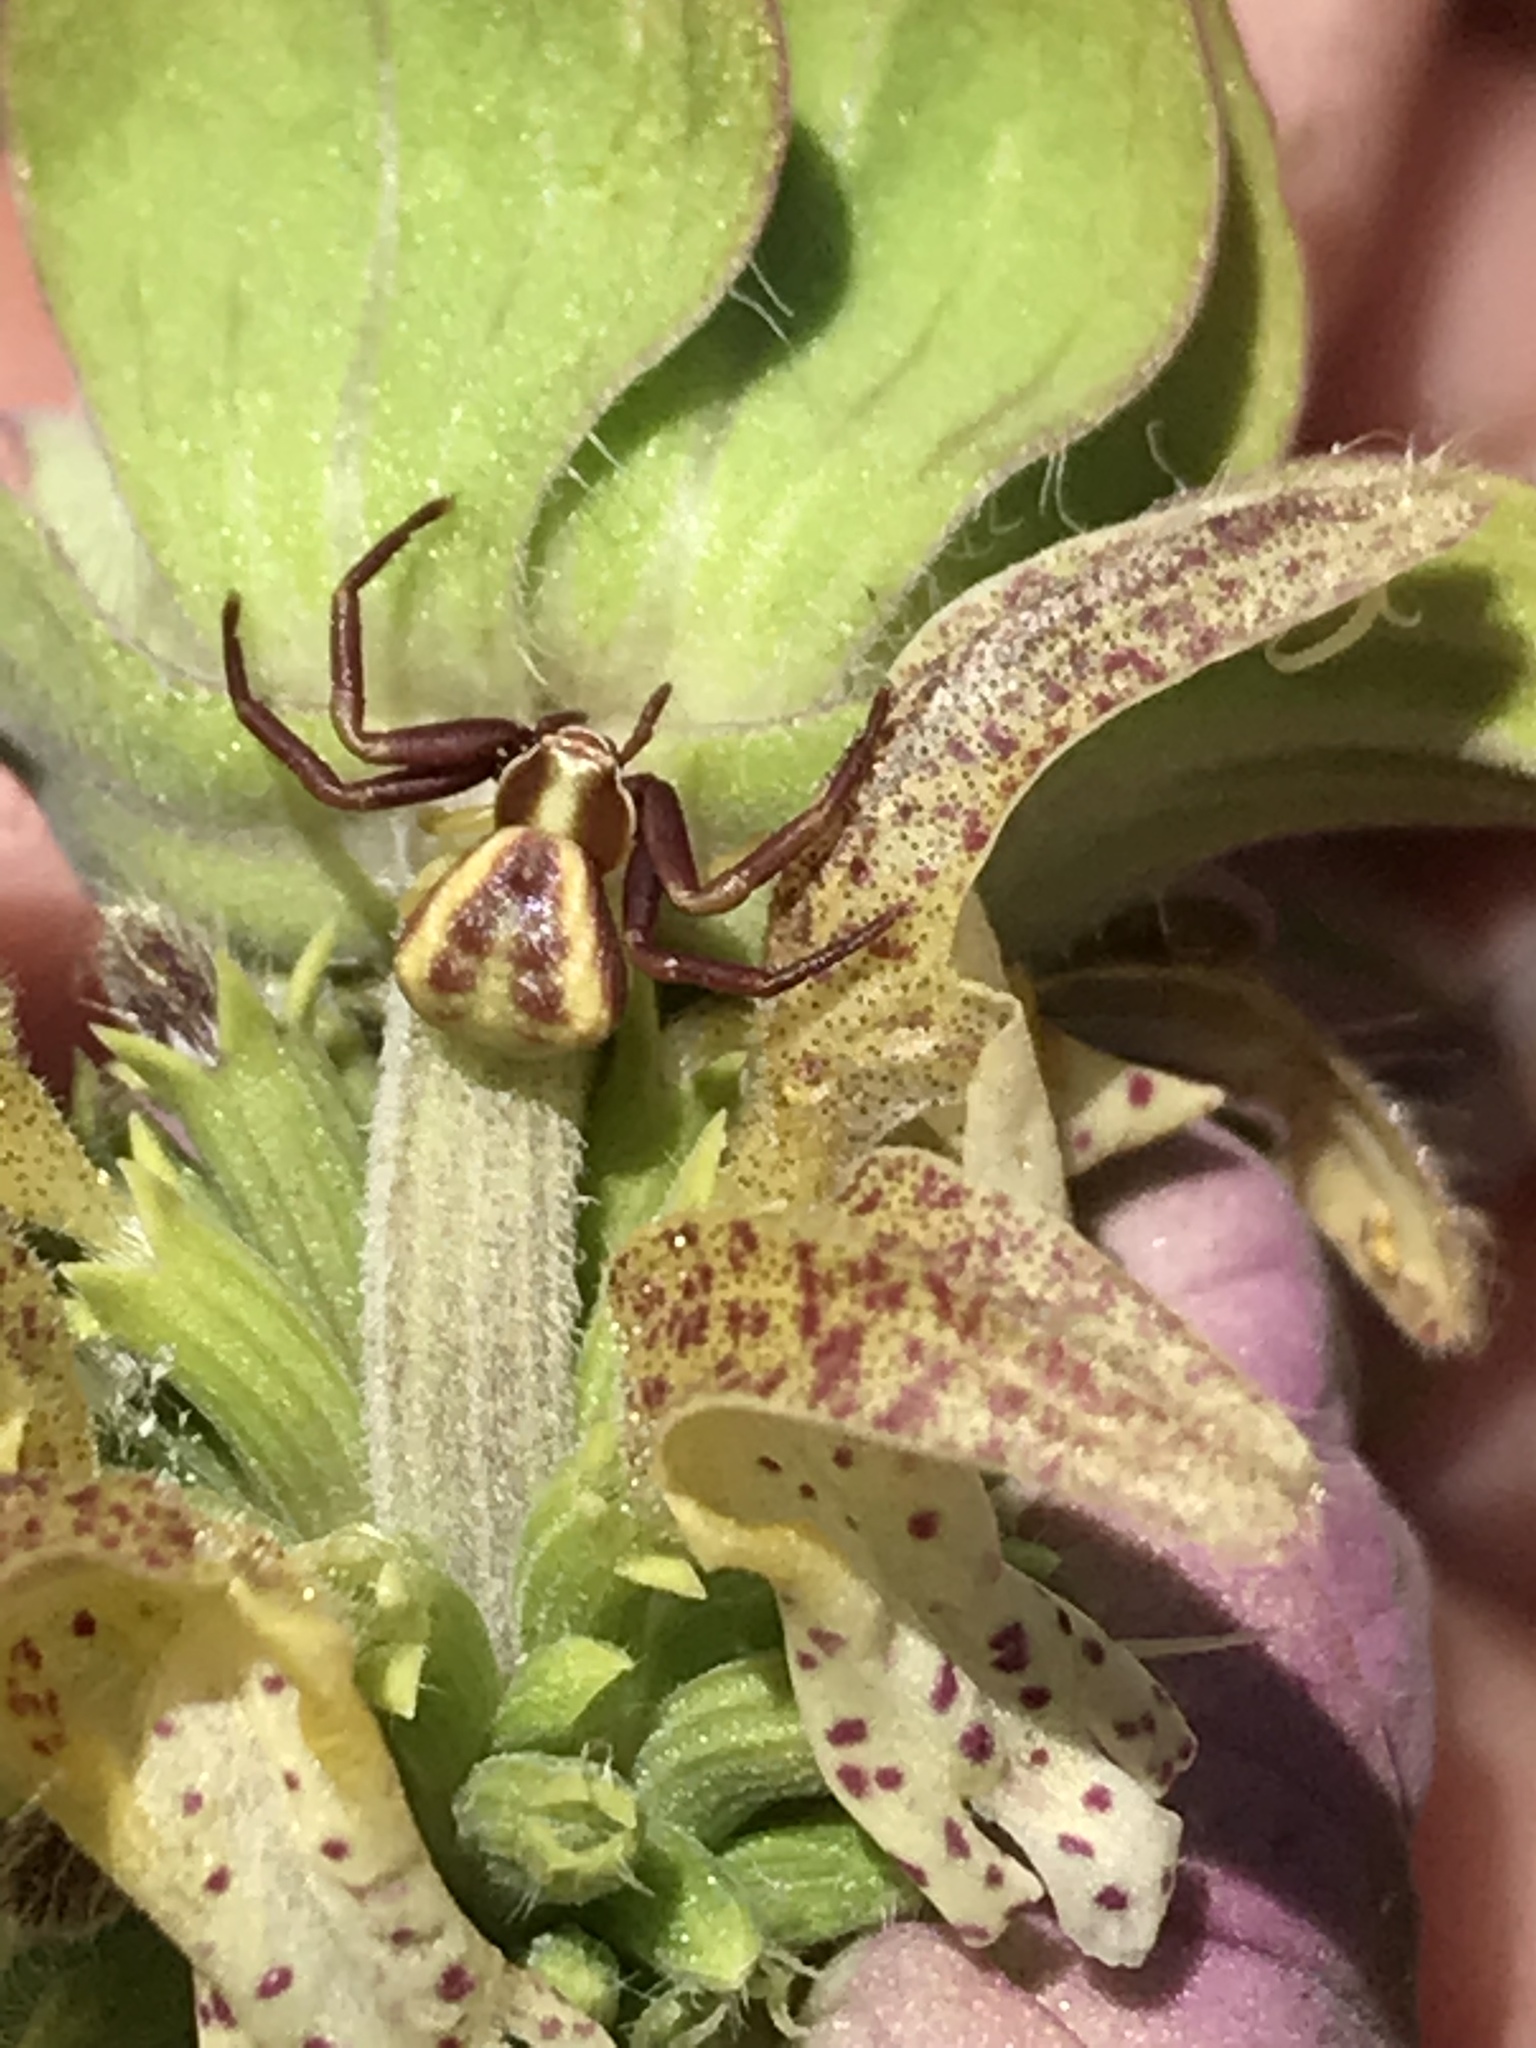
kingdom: Animalia
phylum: Arthropoda
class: Arachnida
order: Araneae
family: Thomisidae
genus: Misumenoides
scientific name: Misumenoides formosipes
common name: White-banded crab spider
